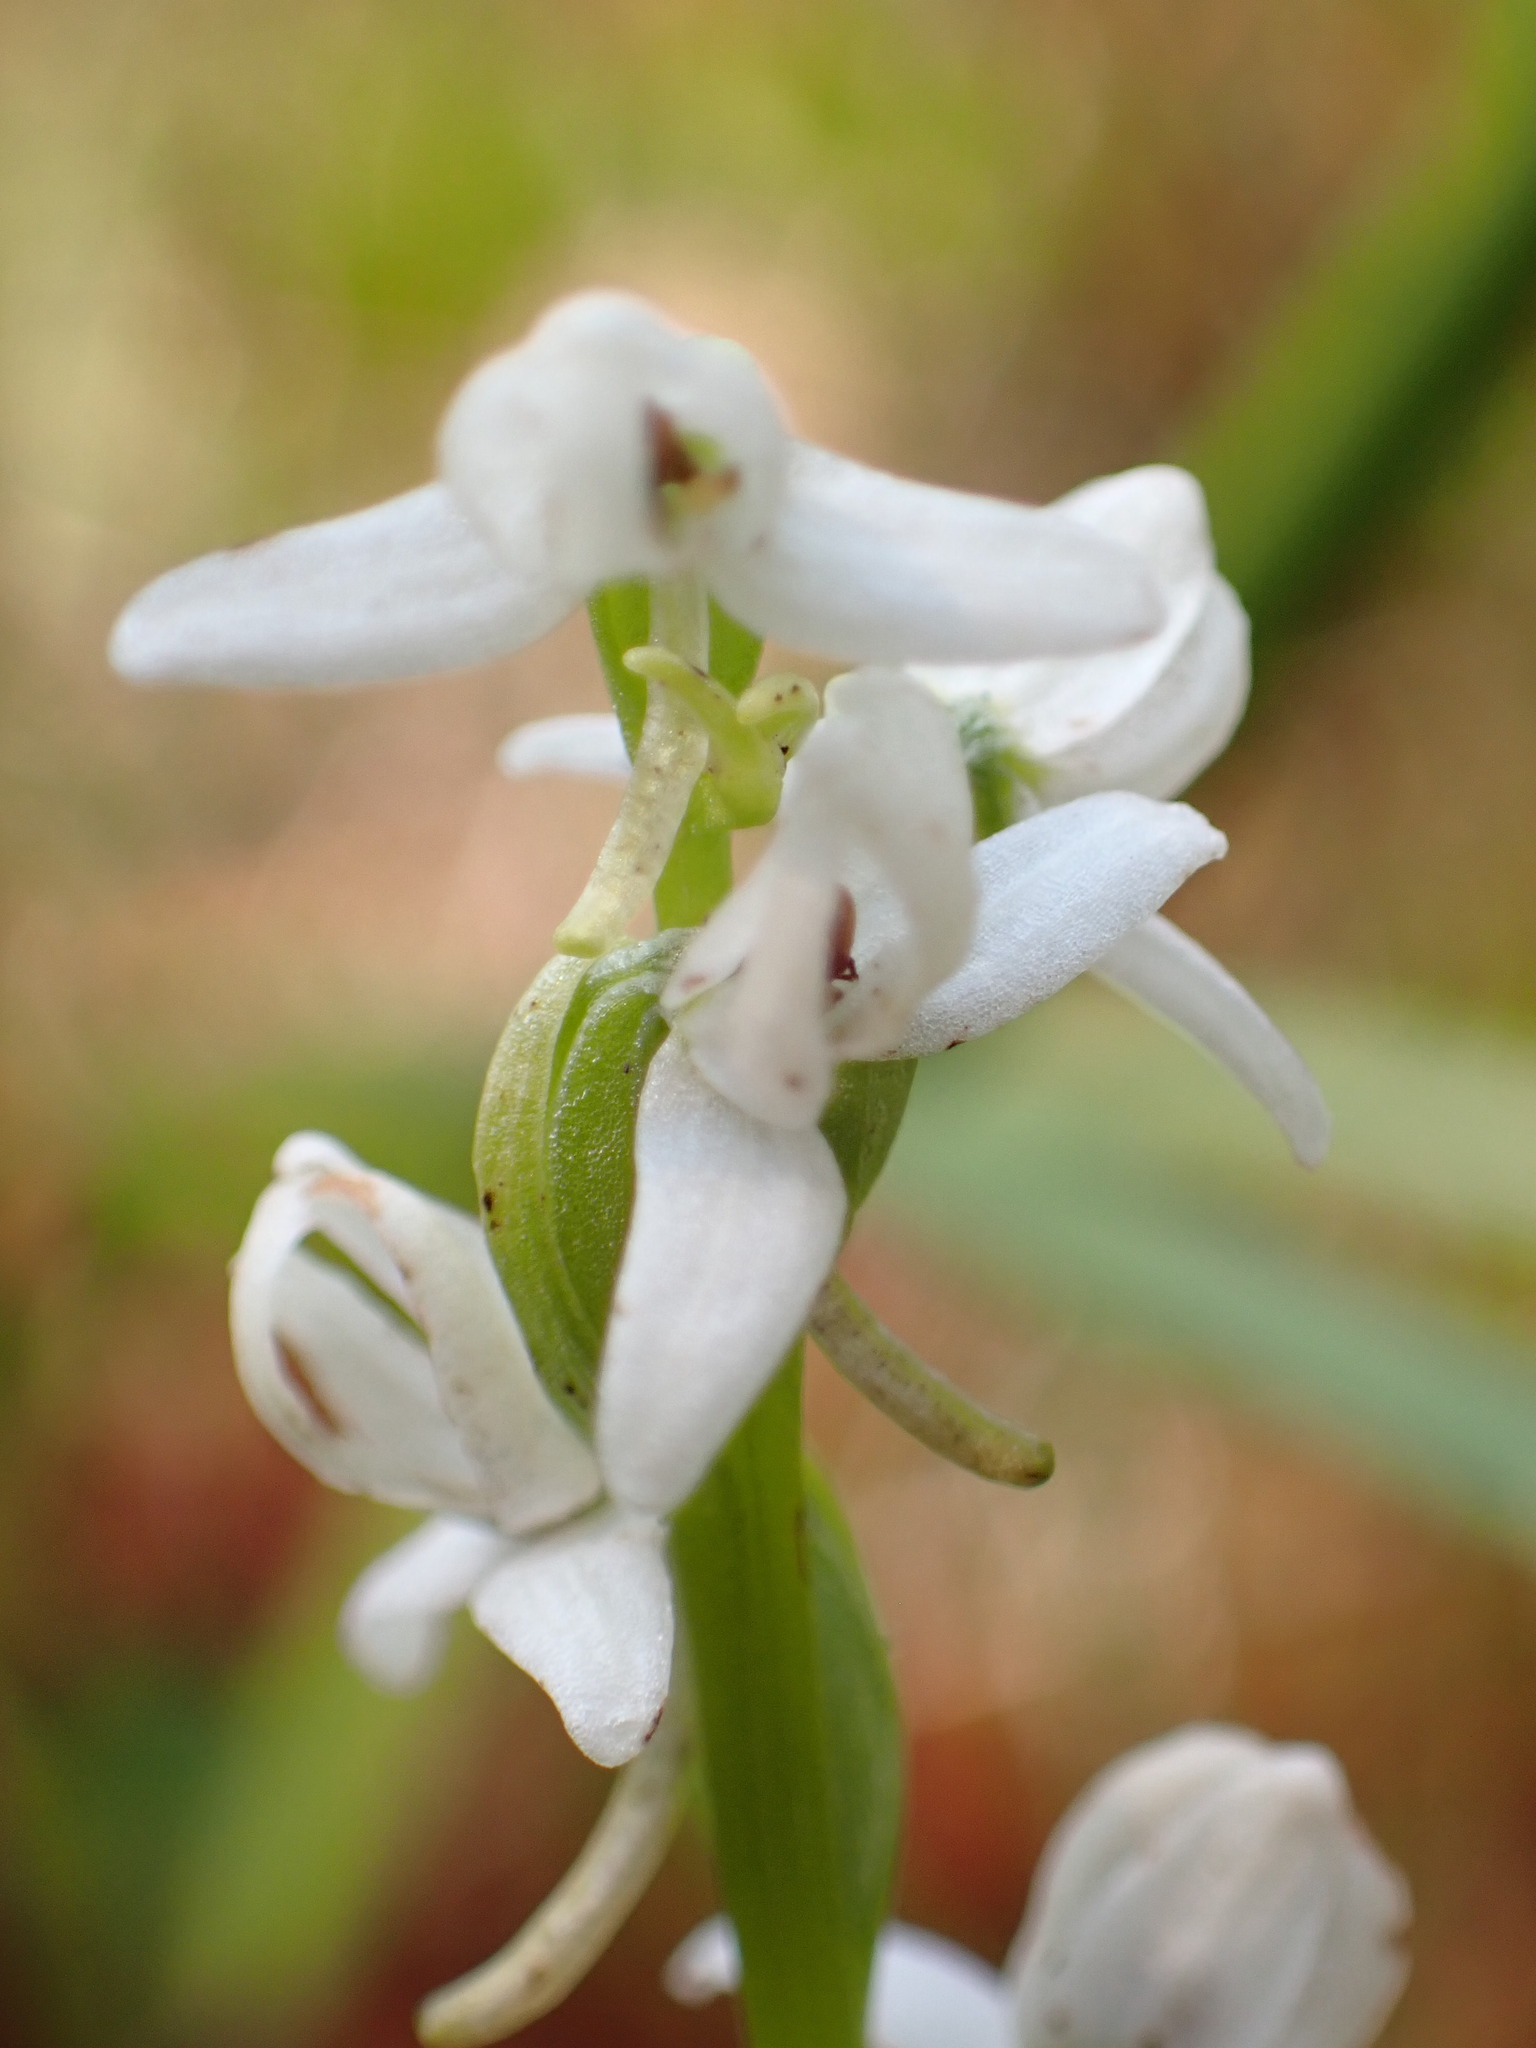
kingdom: Plantae
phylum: Tracheophyta
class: Liliopsida
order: Asparagales
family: Orchidaceae
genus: Platanthera
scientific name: Platanthera dilatata
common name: Bog candles
